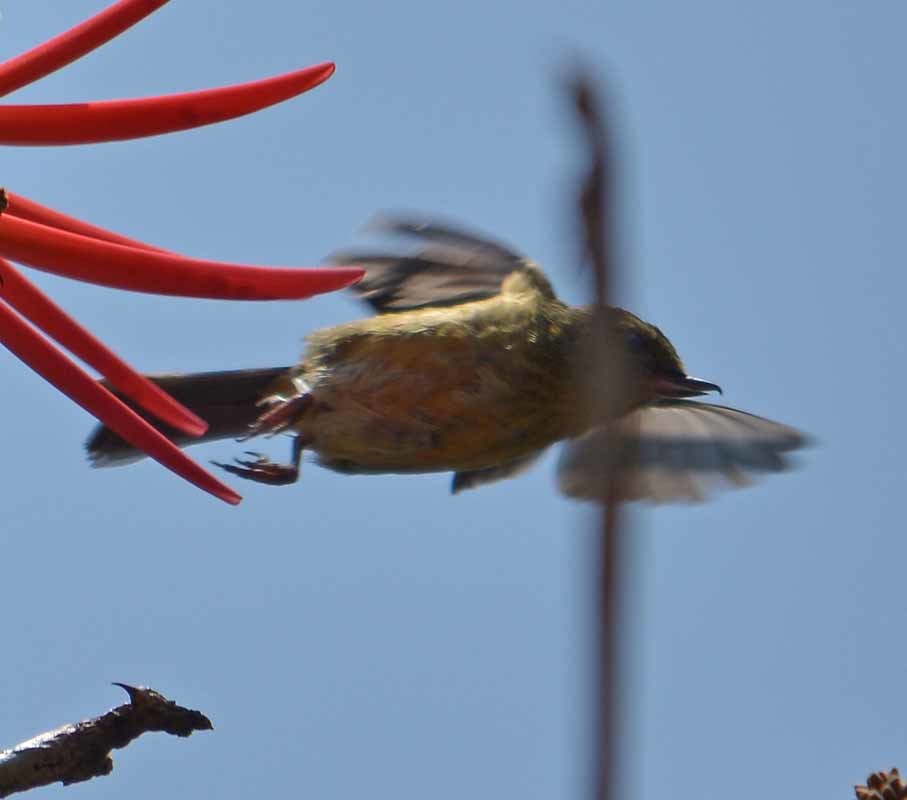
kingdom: Animalia
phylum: Chordata
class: Aves
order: Passeriformes
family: Thraupidae
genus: Diglossa
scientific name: Diglossa baritula
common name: Cinnamon-bellied flowerpiercer
